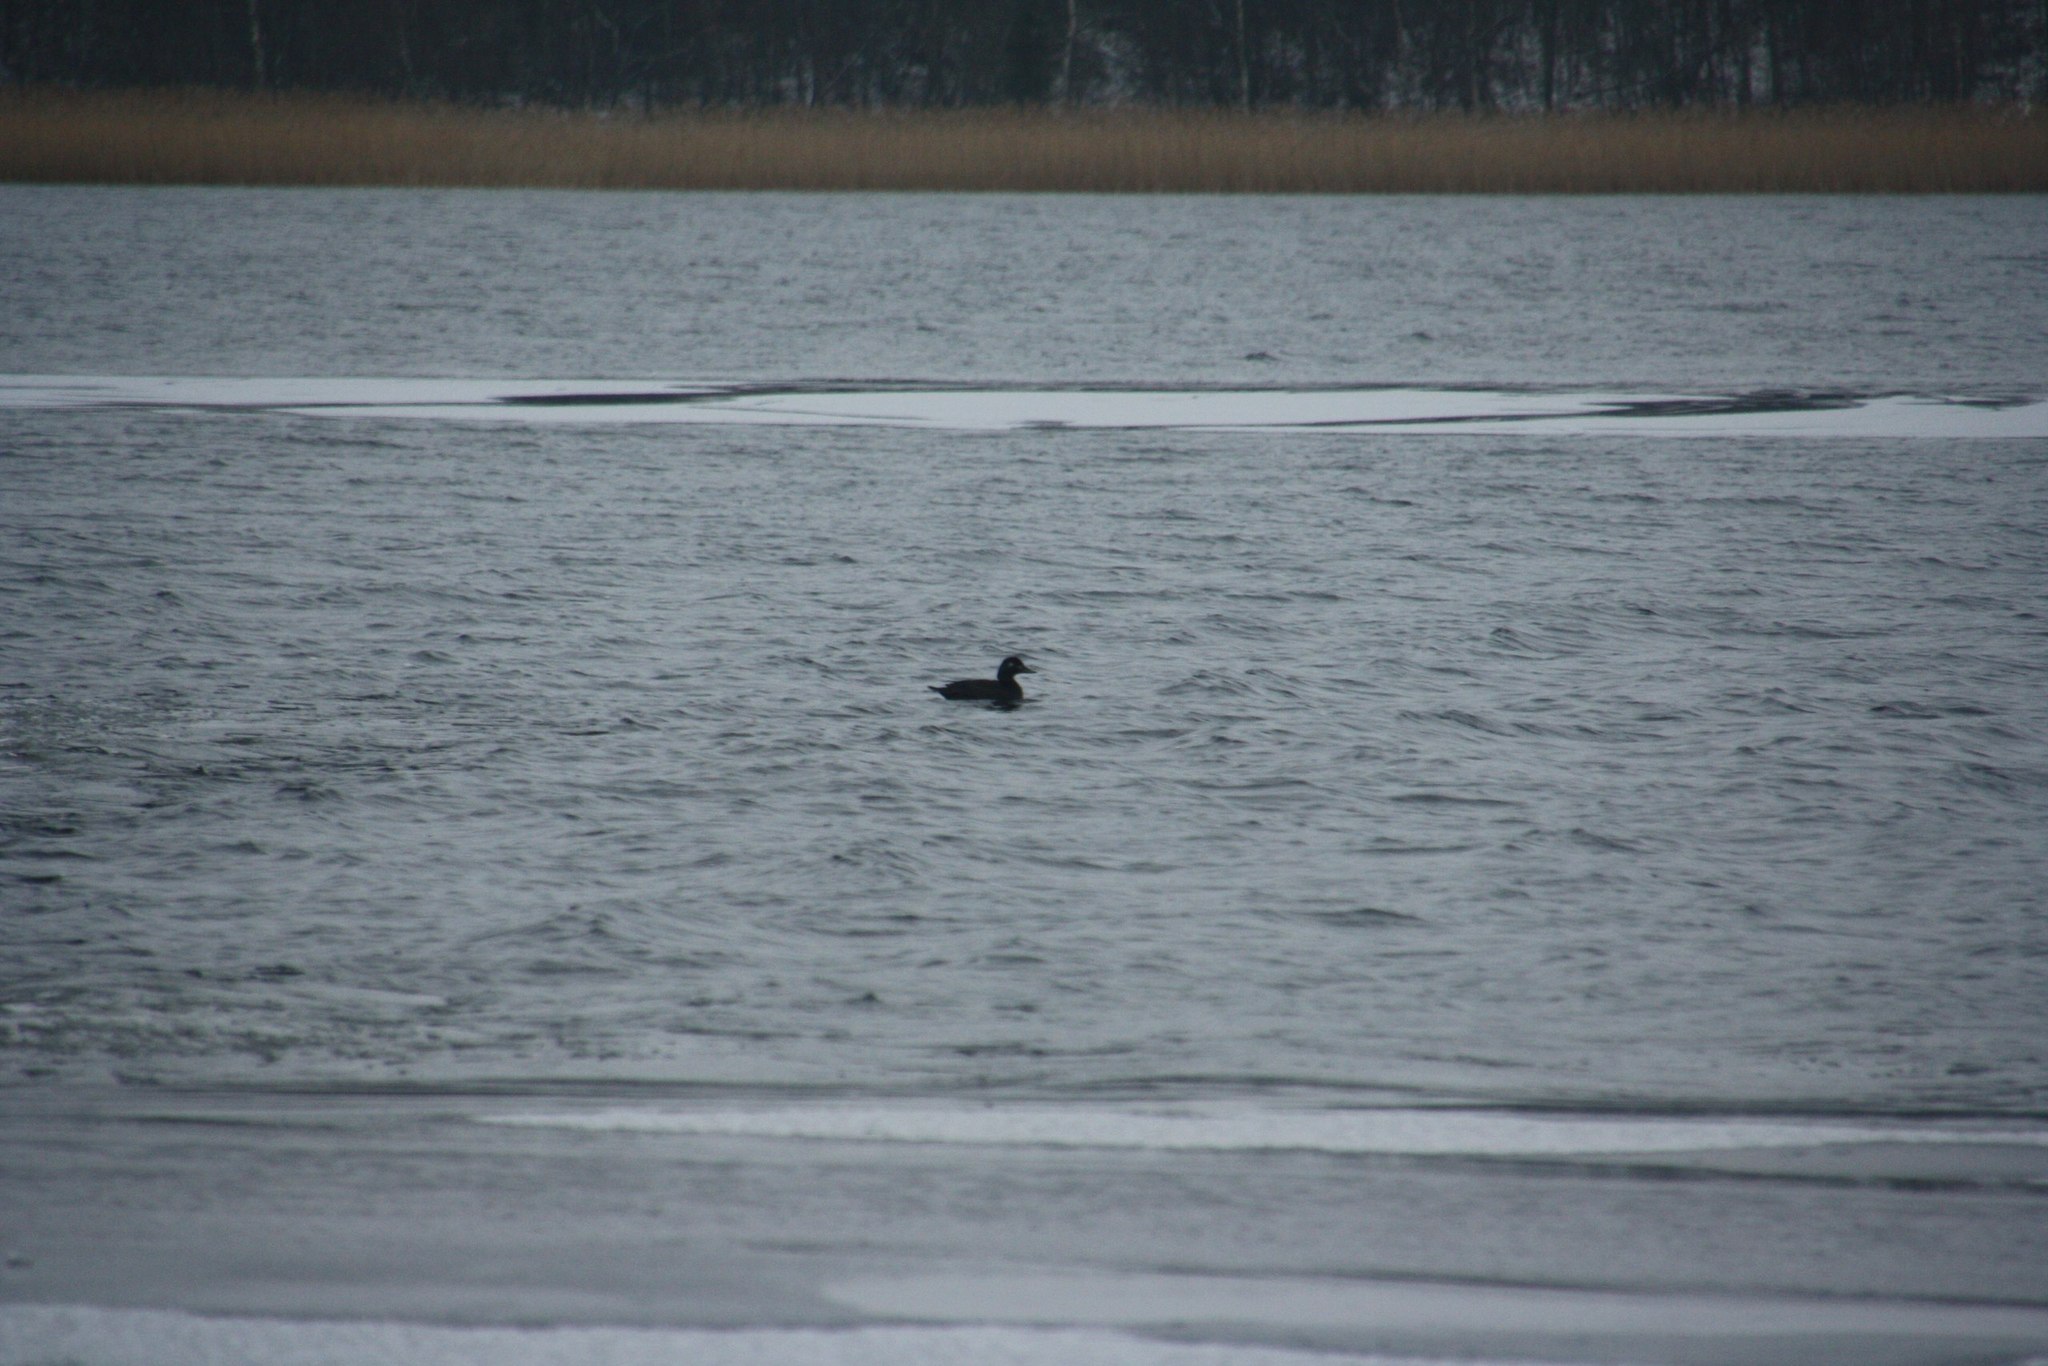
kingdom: Animalia
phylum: Chordata
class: Aves
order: Anseriformes
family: Anatidae
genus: Melanitta
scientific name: Melanitta fusca
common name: Velvet scoter
